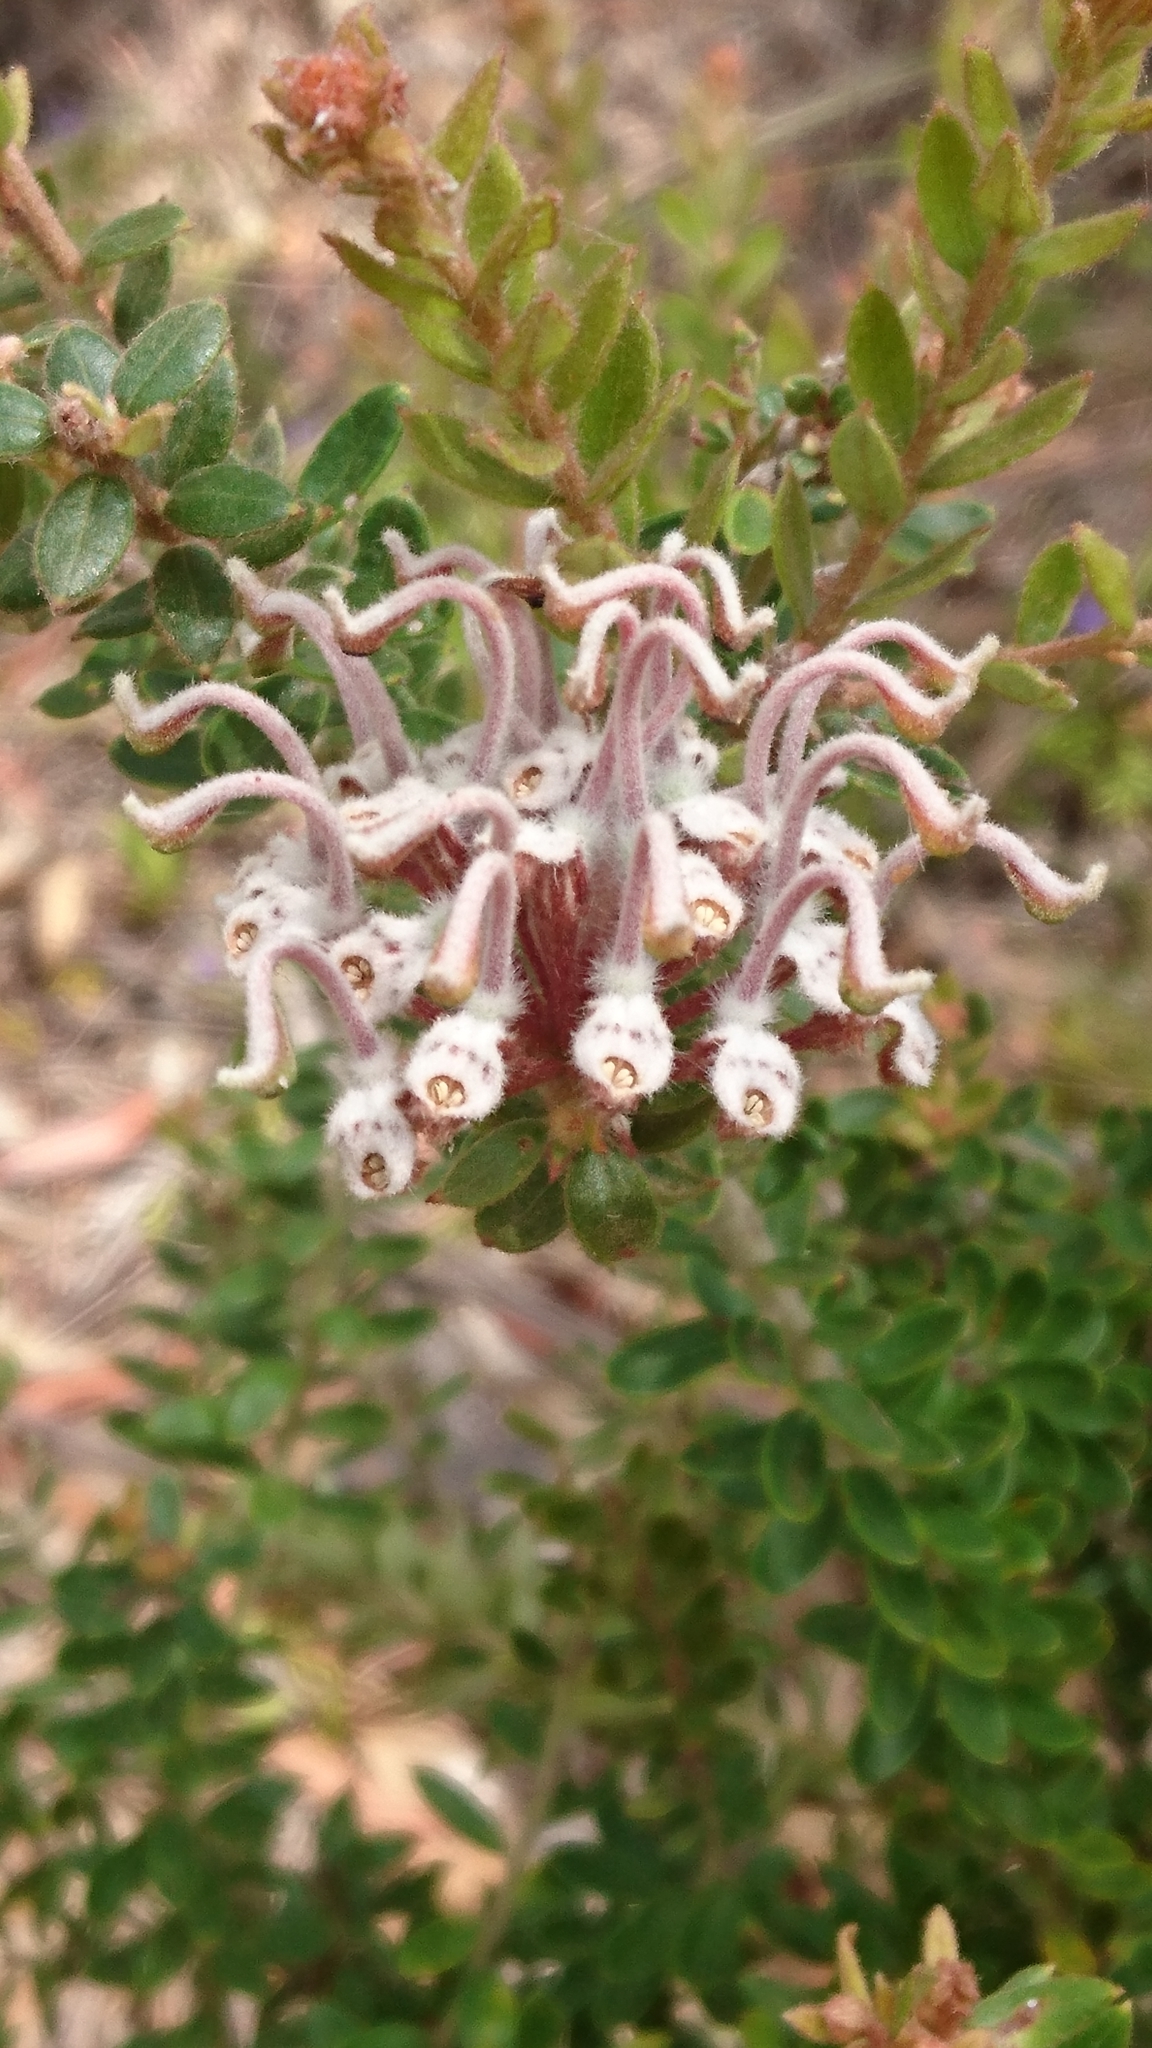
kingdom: Plantae
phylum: Tracheophyta
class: Magnoliopsida
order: Proteales
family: Proteaceae
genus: Grevillea
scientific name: Grevillea buxifolia
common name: Grey spiderflower
